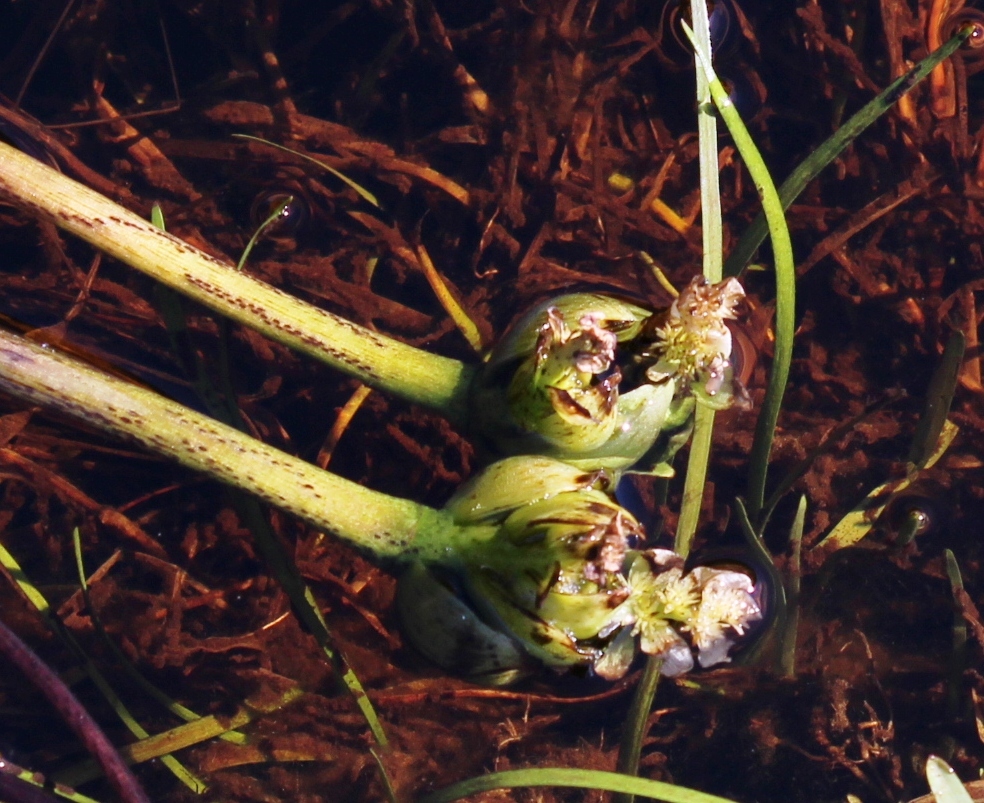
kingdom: Plantae
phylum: Tracheophyta
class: Liliopsida
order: Alismatales
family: Aponogetonaceae
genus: Aponogeton
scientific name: Aponogeton distachyos
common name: Cape-pondweed
